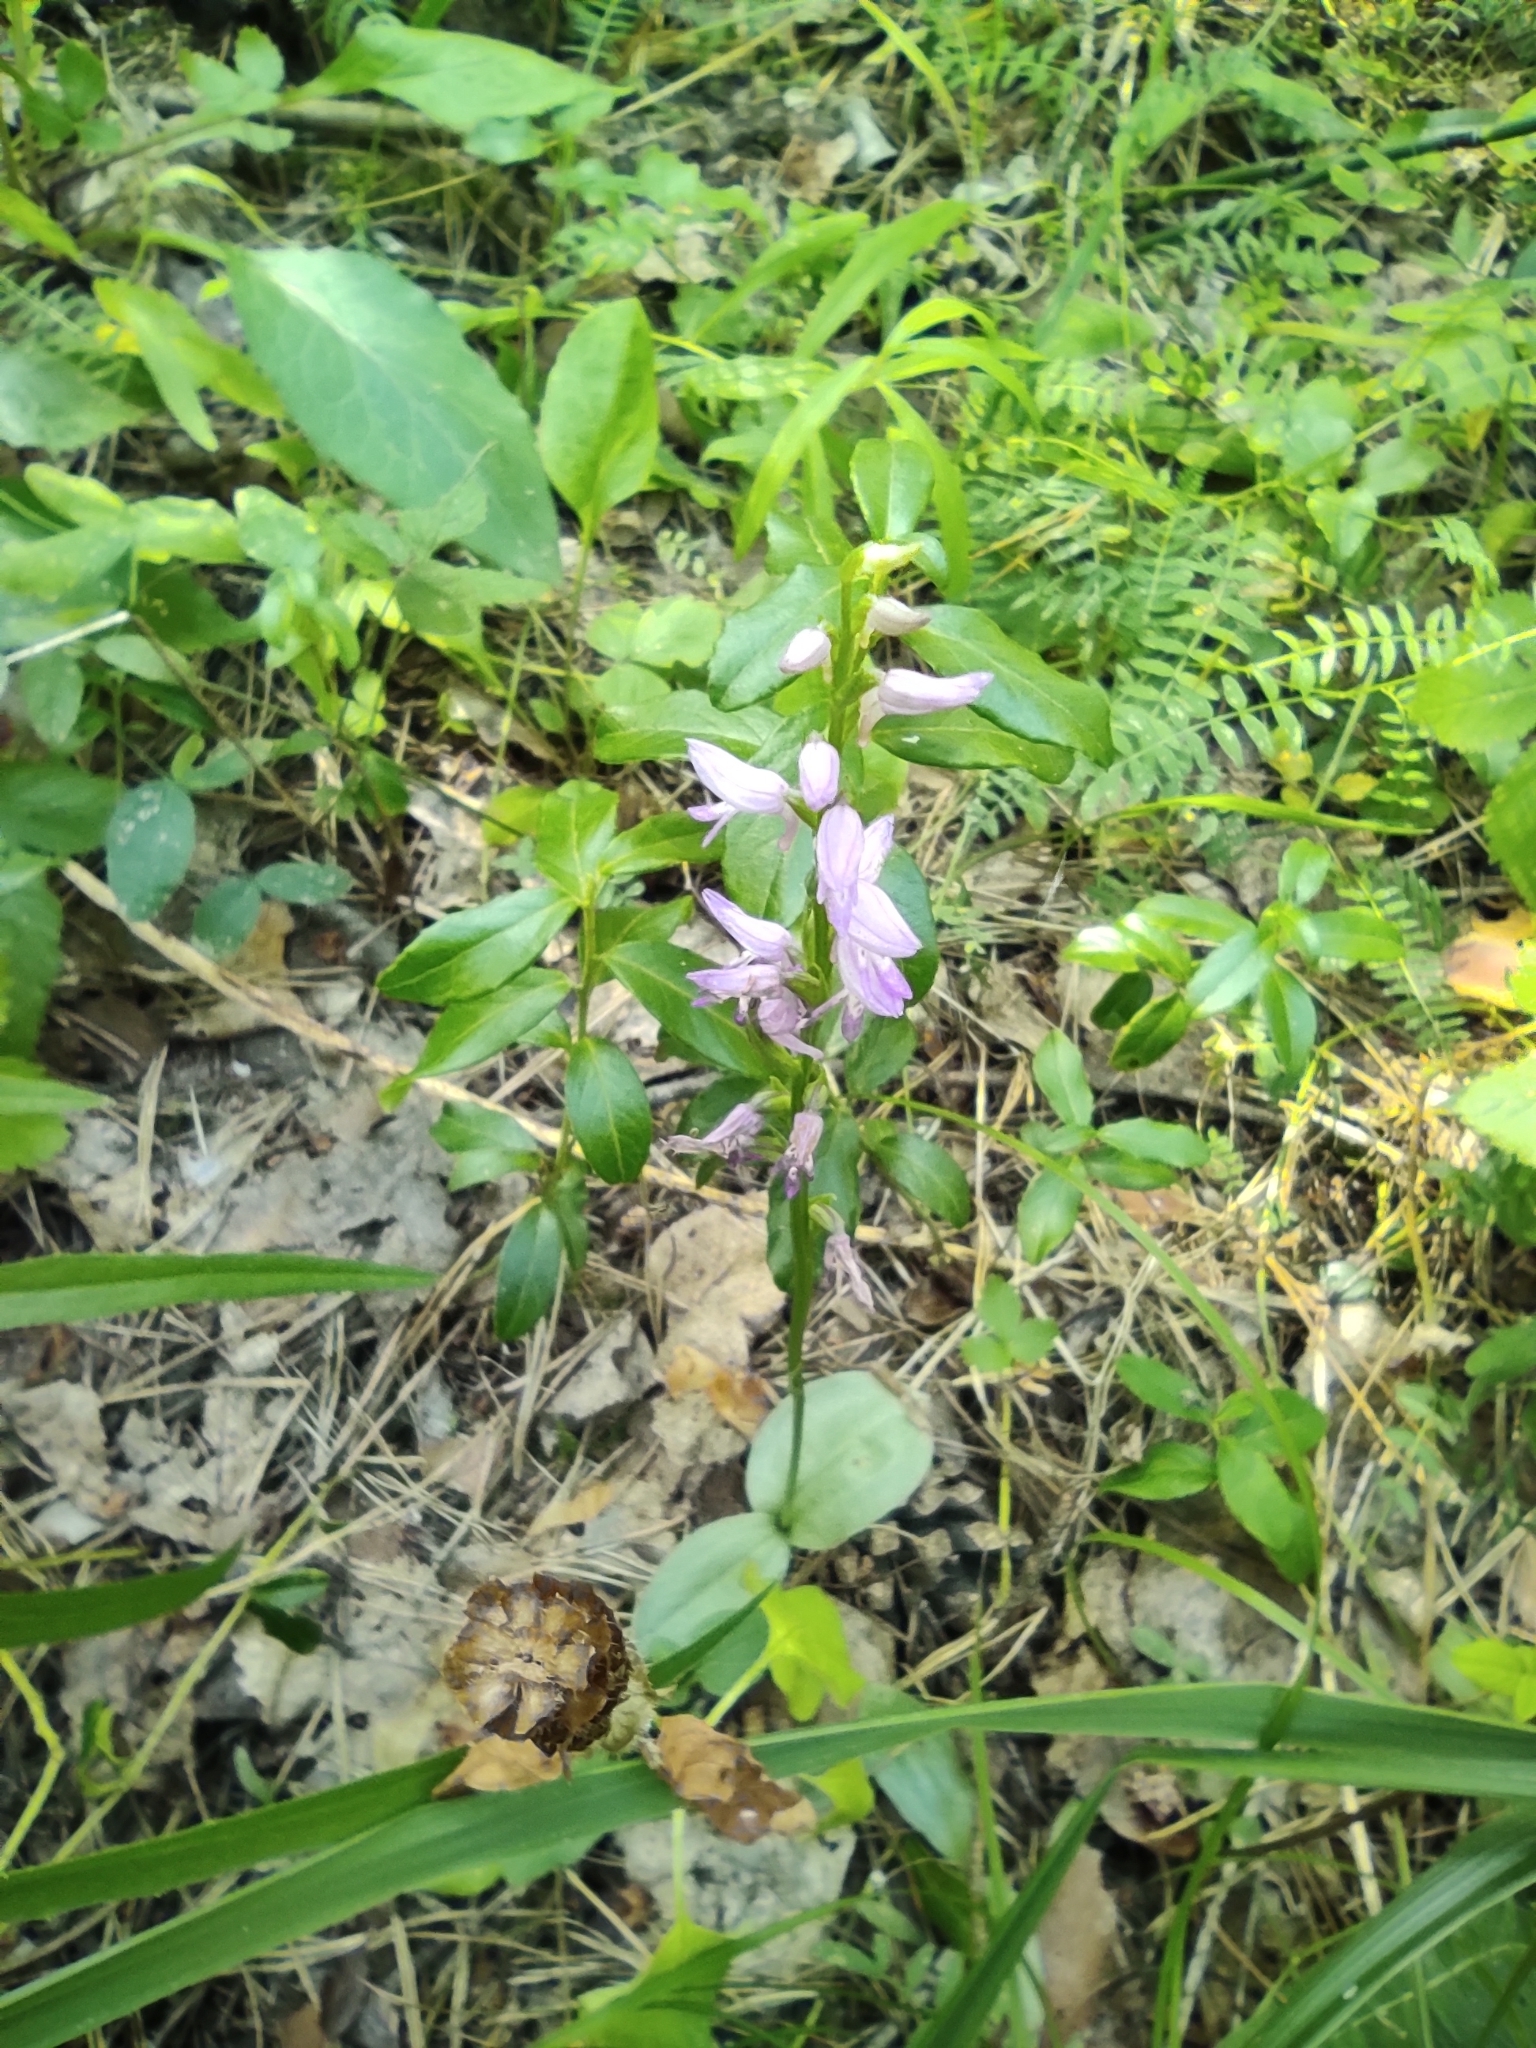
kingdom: Plantae
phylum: Tracheophyta
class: Liliopsida
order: Asparagales
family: Orchidaceae
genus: Hemipilia
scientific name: Hemipilia cucullata
